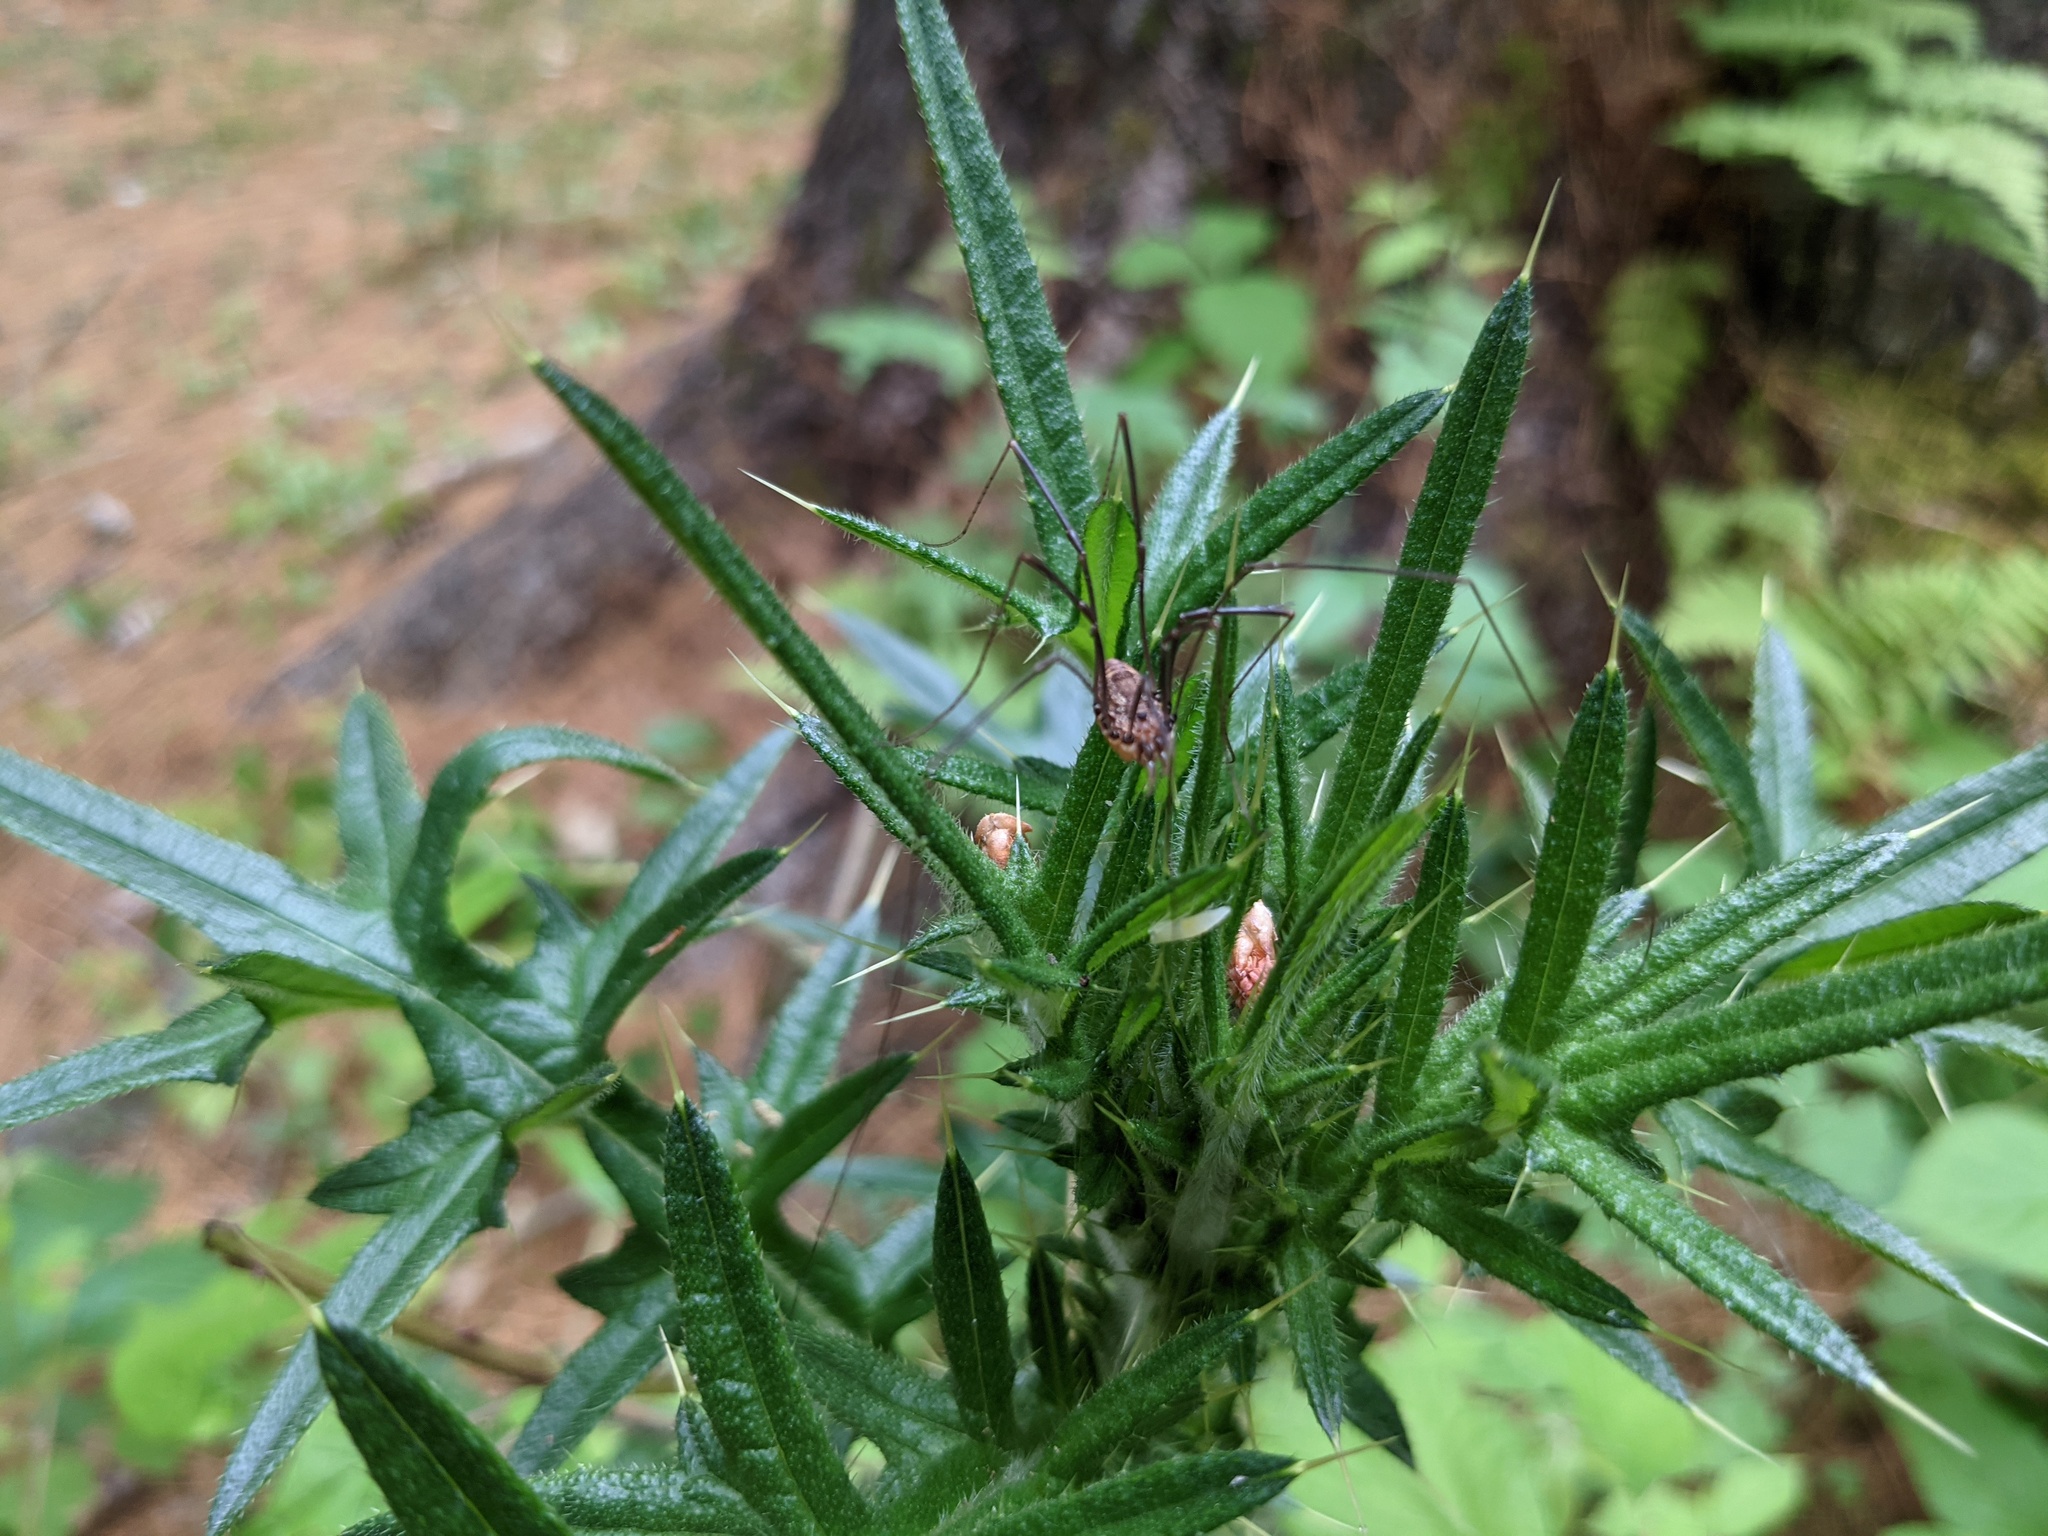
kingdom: Plantae
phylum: Tracheophyta
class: Magnoliopsida
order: Asterales
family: Asteraceae
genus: Cirsium
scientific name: Cirsium vulgare
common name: Bull thistle
